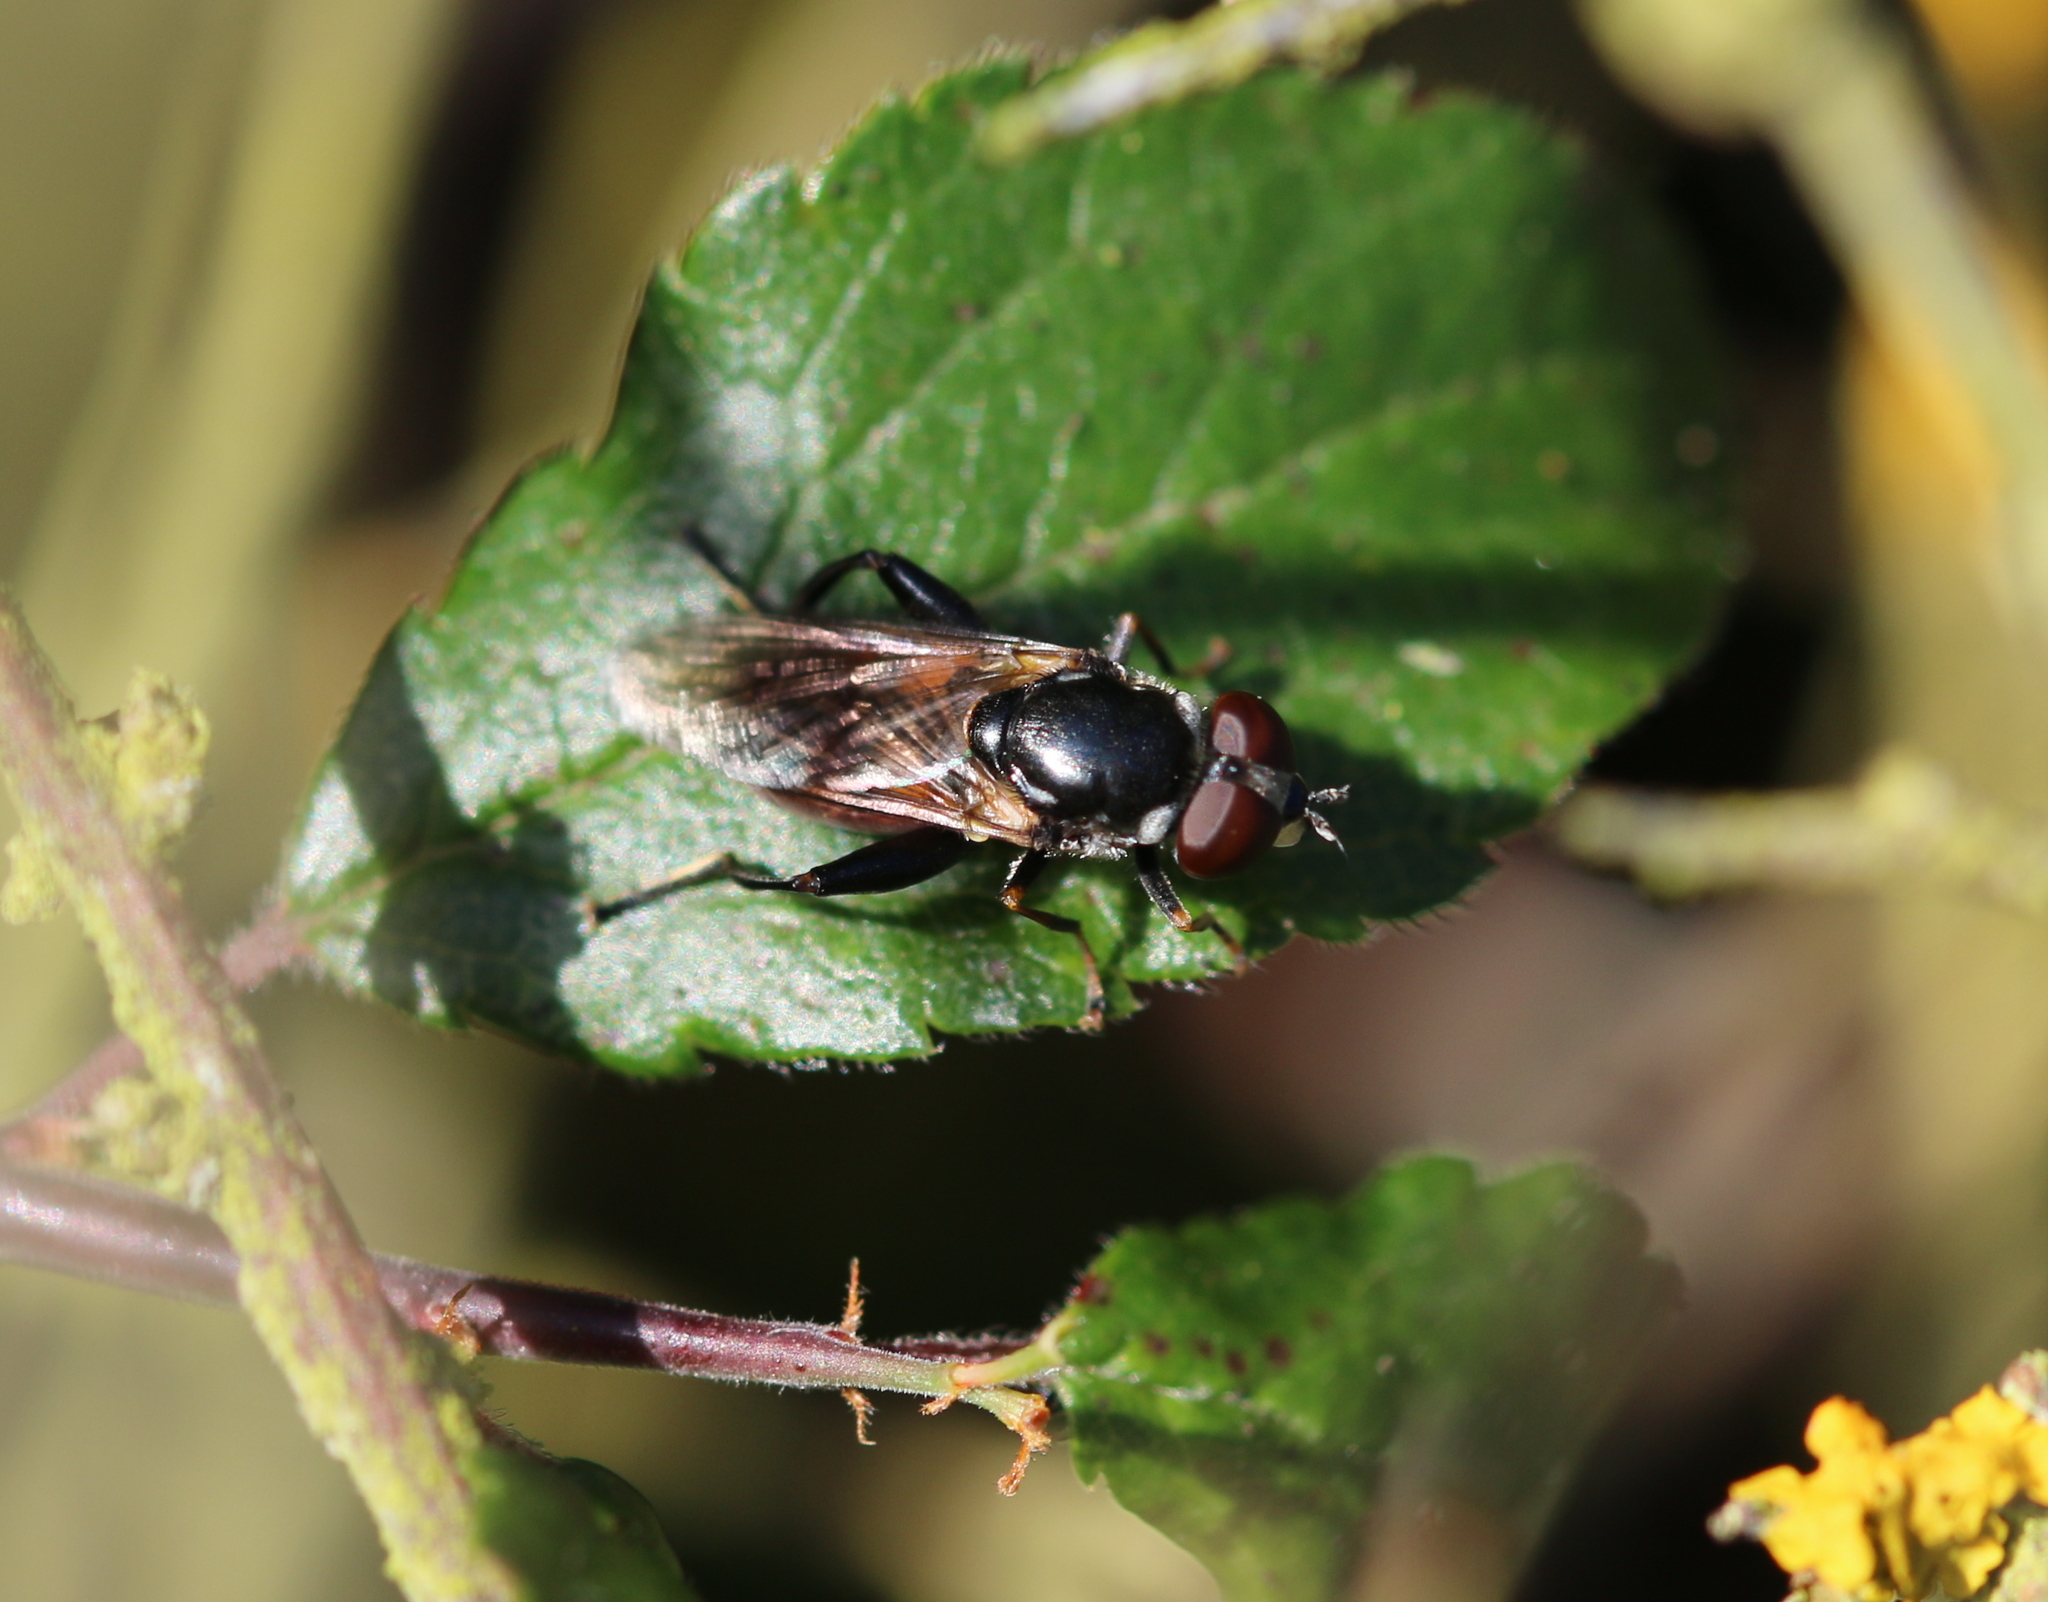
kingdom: Animalia
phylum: Arthropoda
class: Insecta
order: Diptera
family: Syrphidae
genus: Tropidia
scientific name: Tropidia scita
